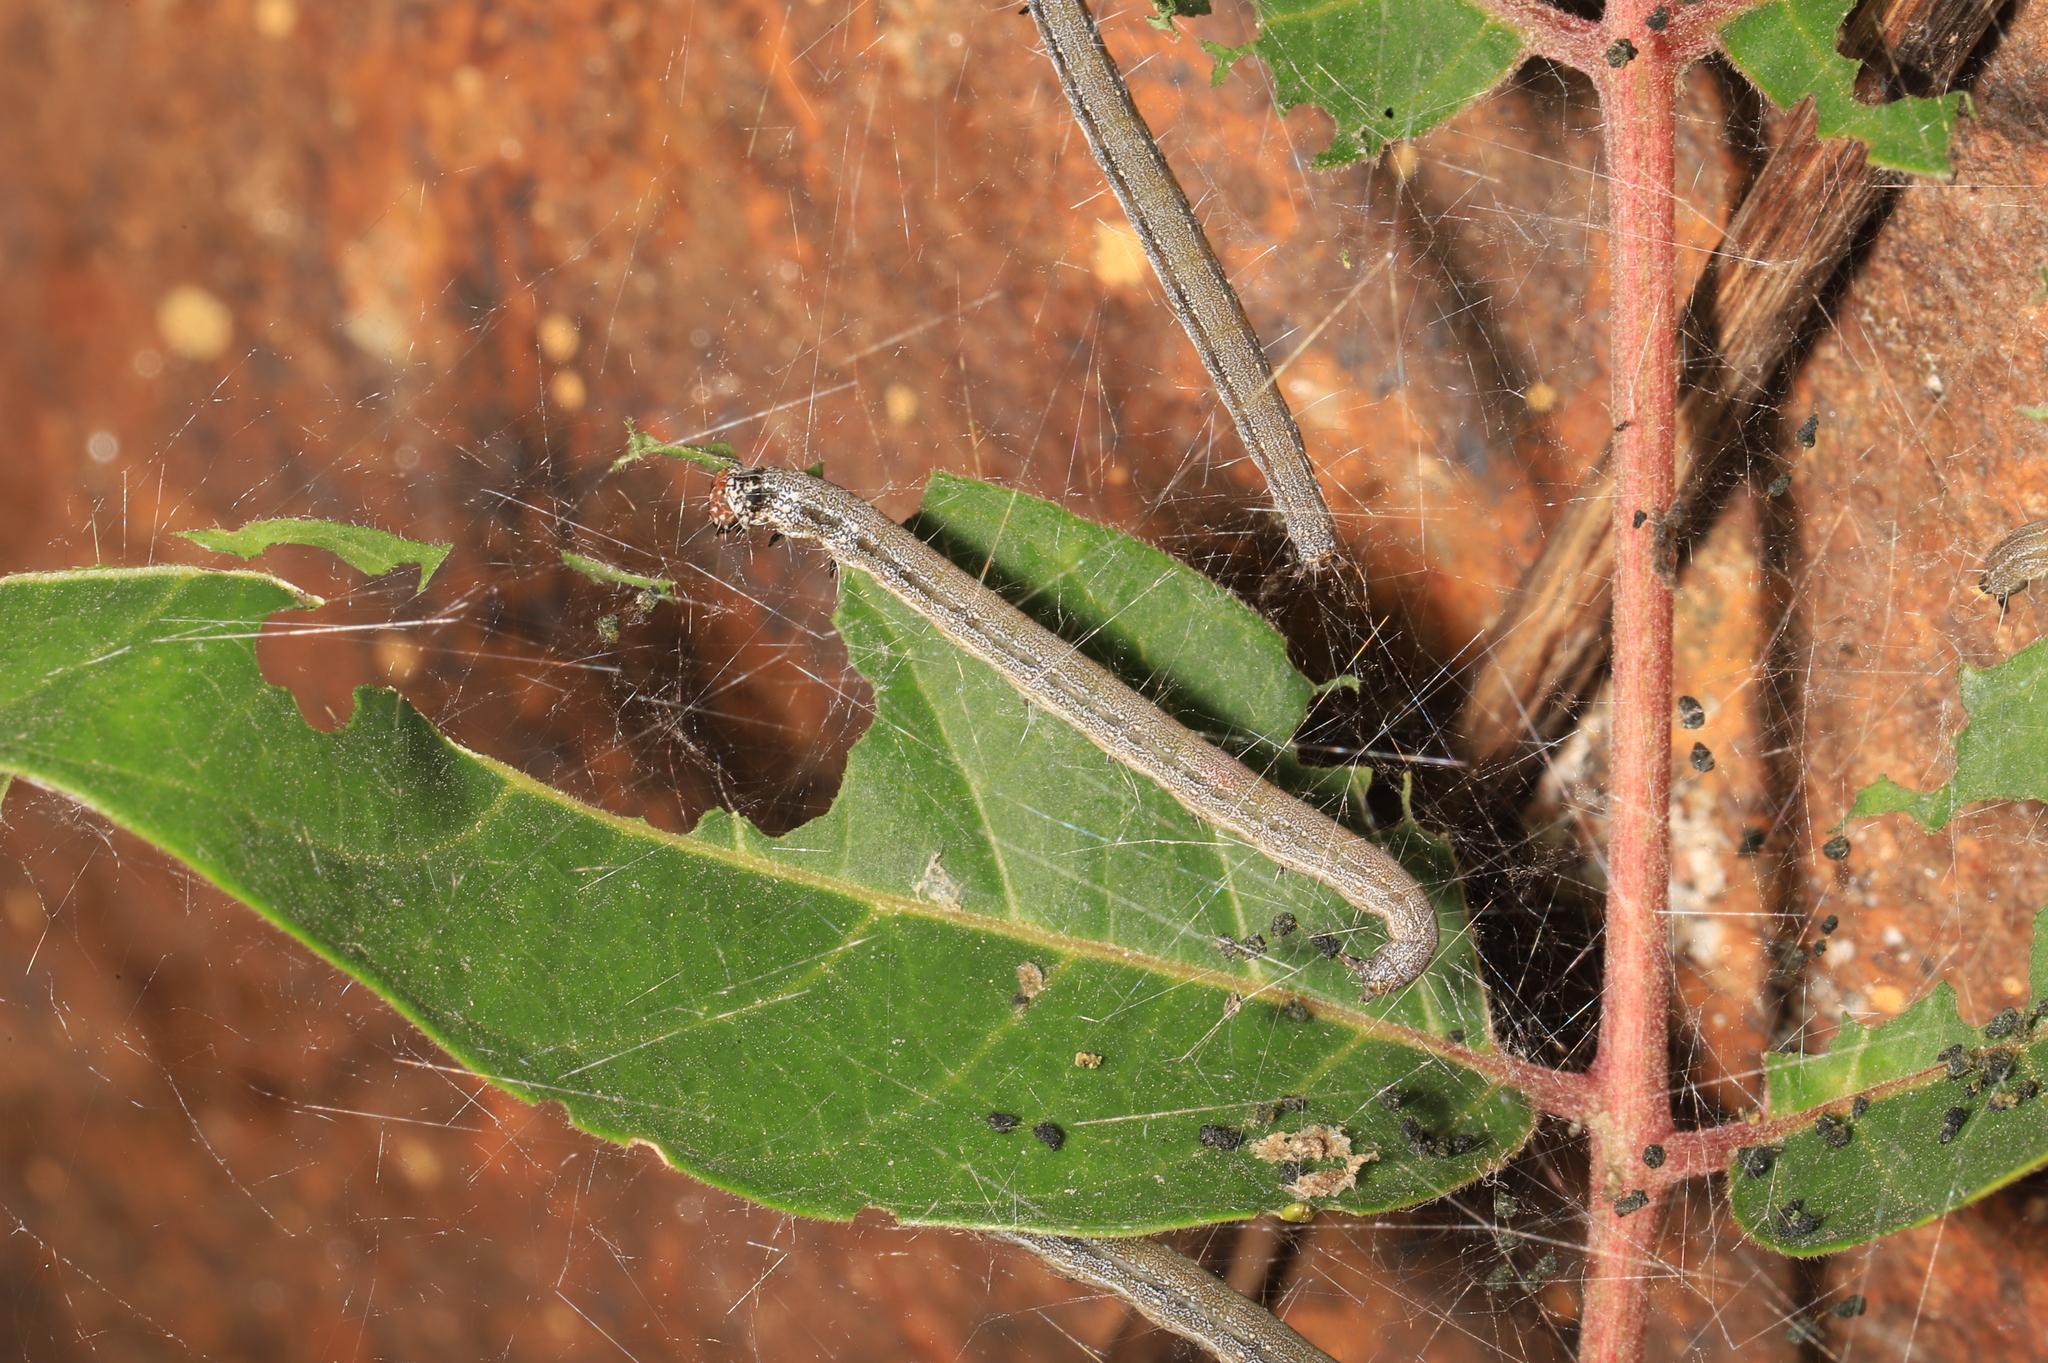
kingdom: Animalia
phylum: Arthropoda
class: Insecta
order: Lepidoptera
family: Attevidae
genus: Atteva
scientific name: Atteva punctella
